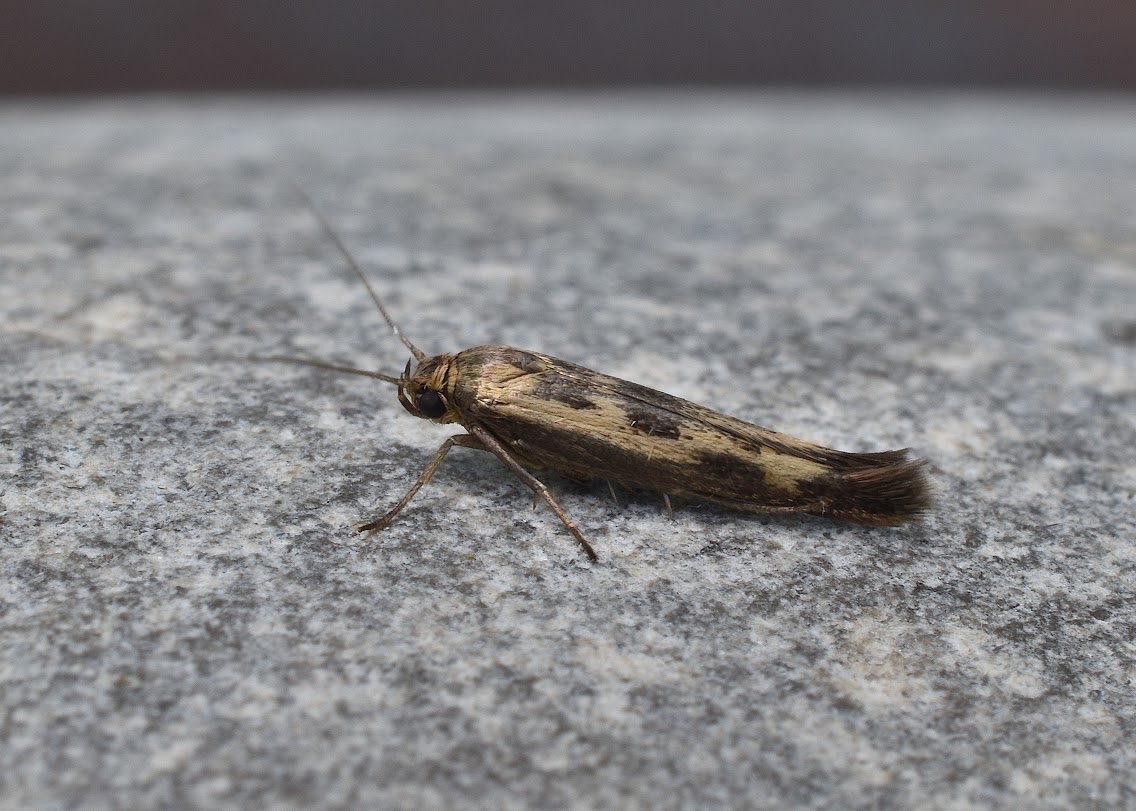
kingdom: Animalia
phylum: Arthropoda
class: Insecta
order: Lepidoptera
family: Scythrididae
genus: Scythris
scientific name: Scythris limbella
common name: Goosefoot owlet
